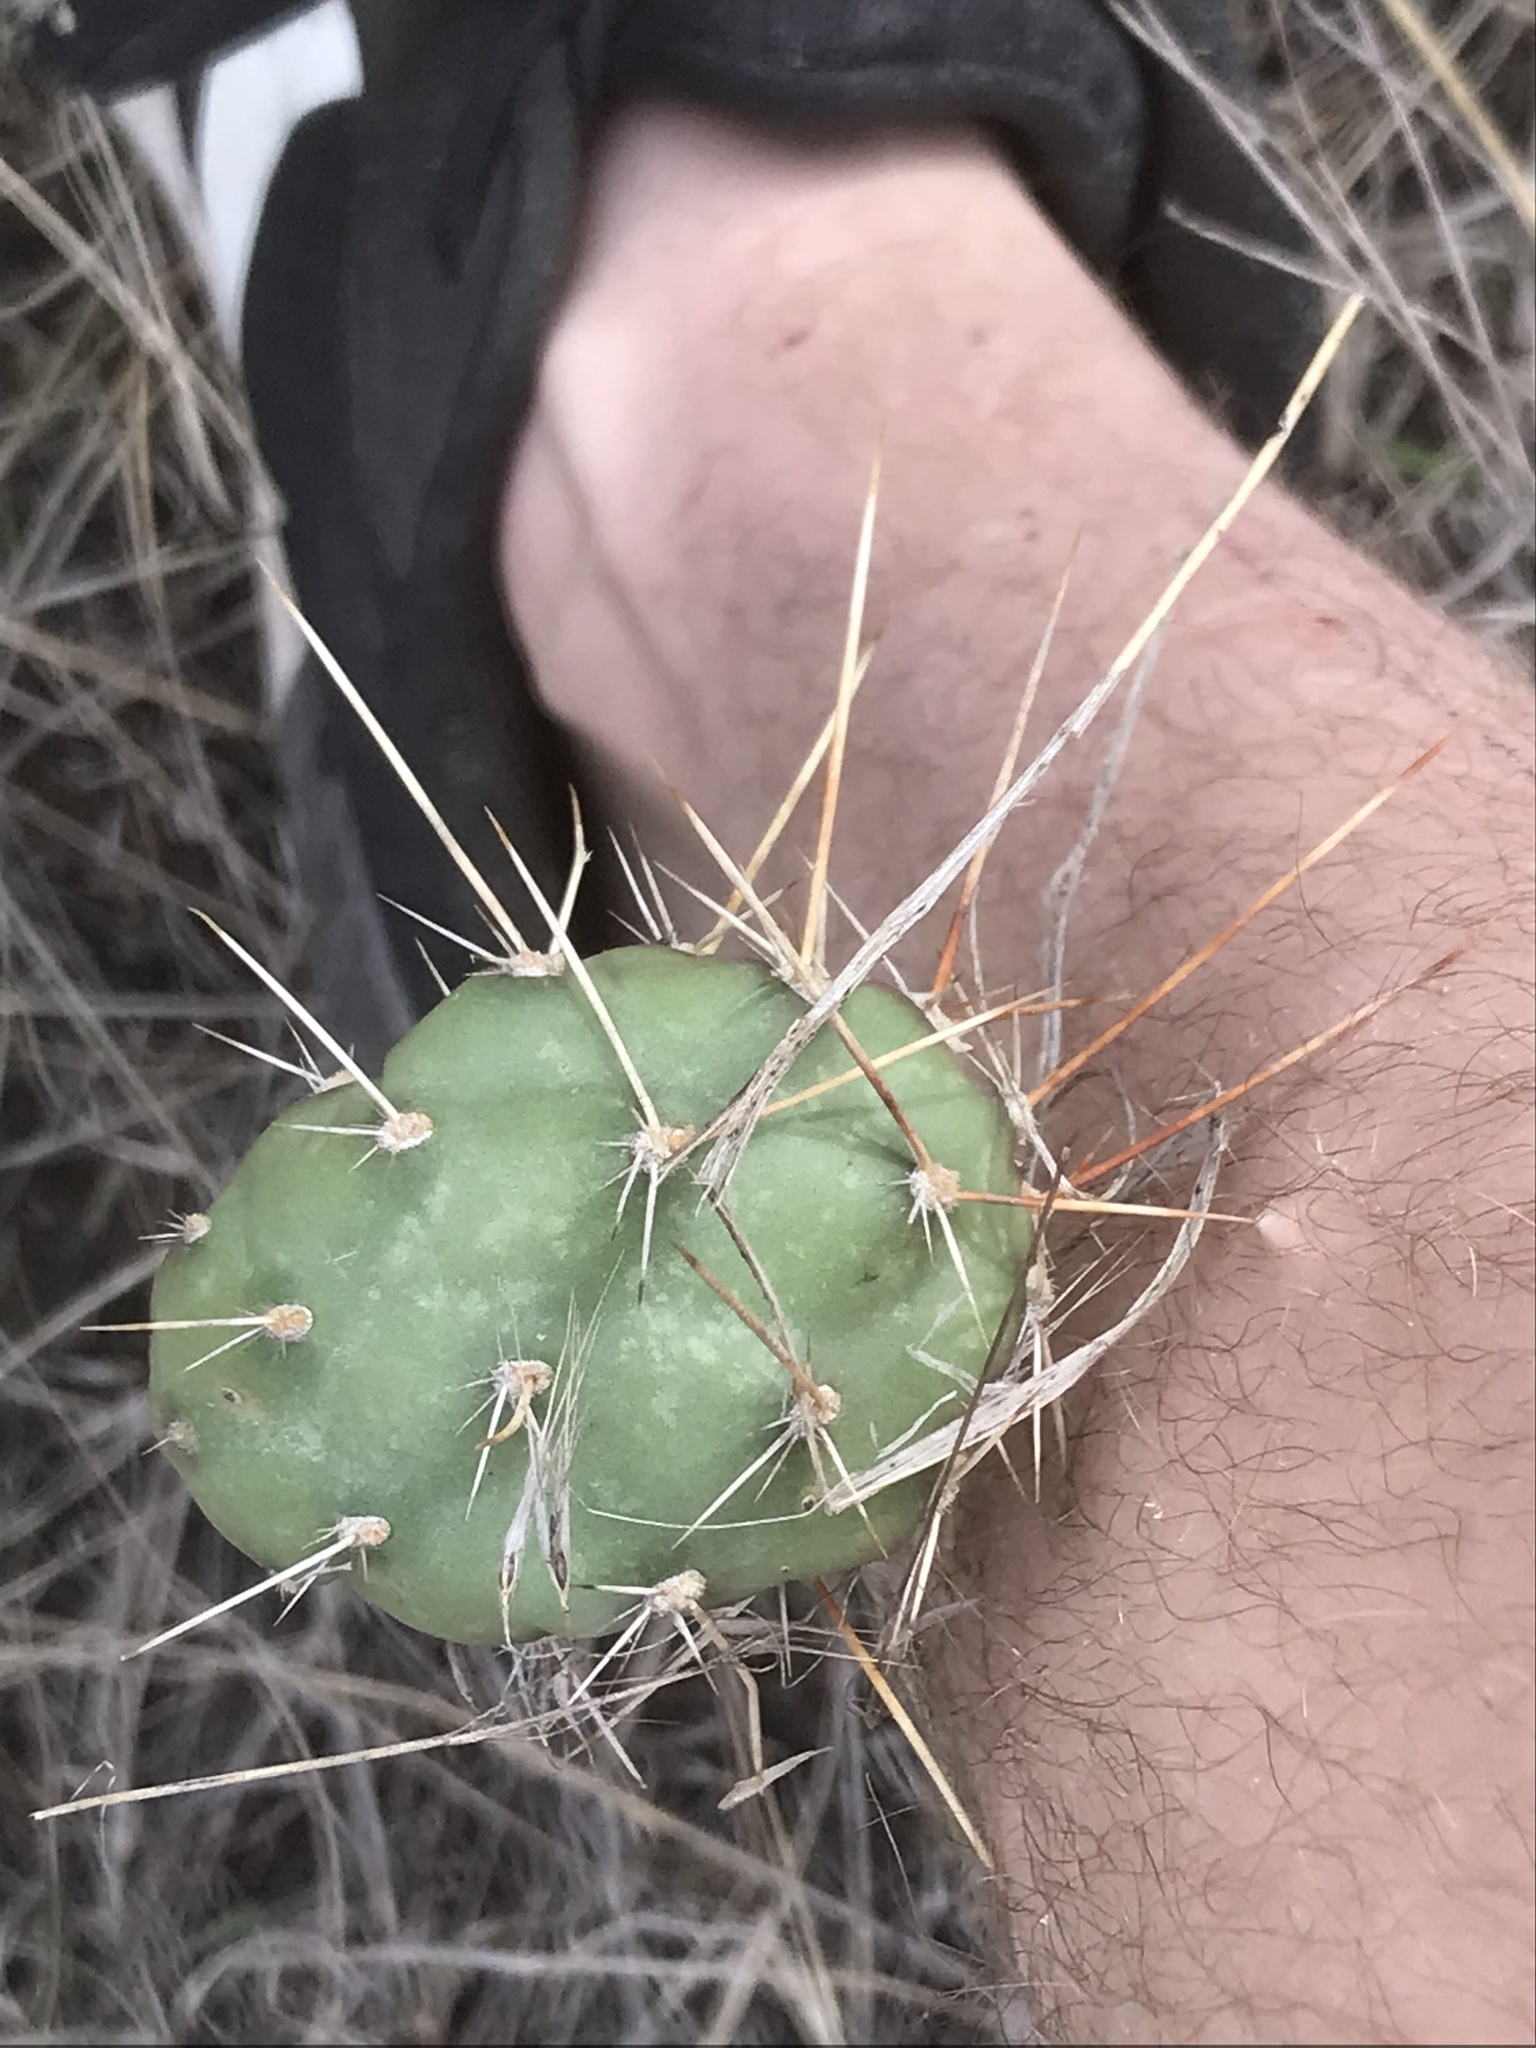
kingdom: Plantae
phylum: Tracheophyta
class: Magnoliopsida
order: Caryophyllales
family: Cactaceae
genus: Opuntia
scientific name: Opuntia fragilis
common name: Brittle cactus
